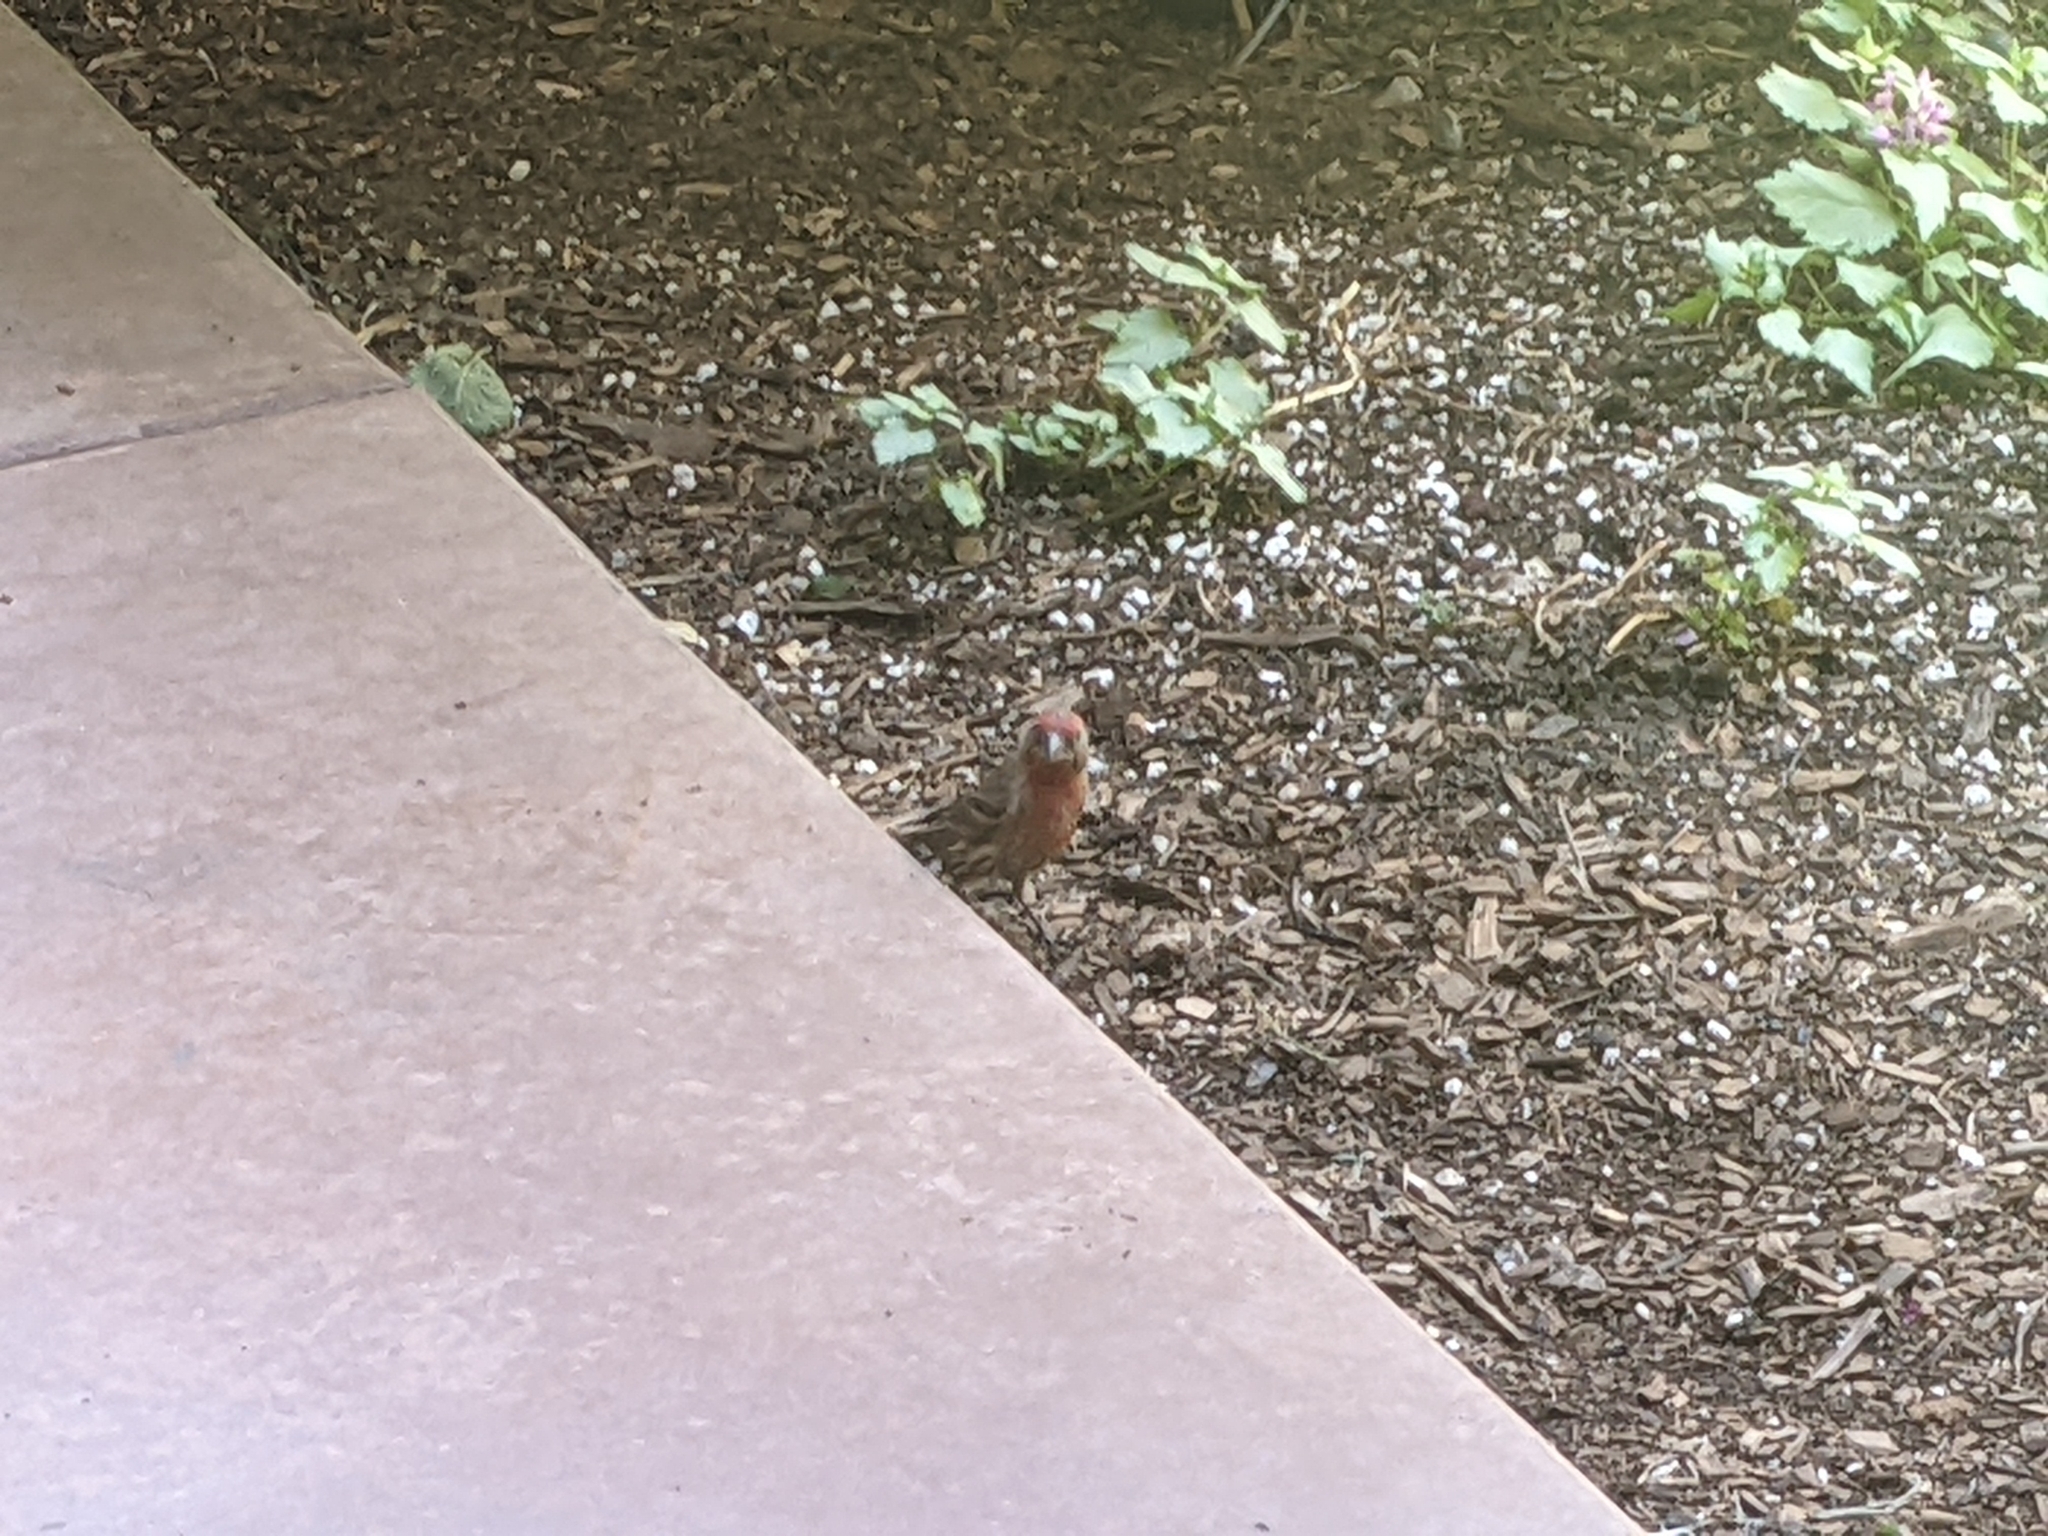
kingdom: Animalia
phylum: Chordata
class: Aves
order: Passeriformes
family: Fringillidae
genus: Haemorhous
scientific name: Haemorhous mexicanus
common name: House finch
